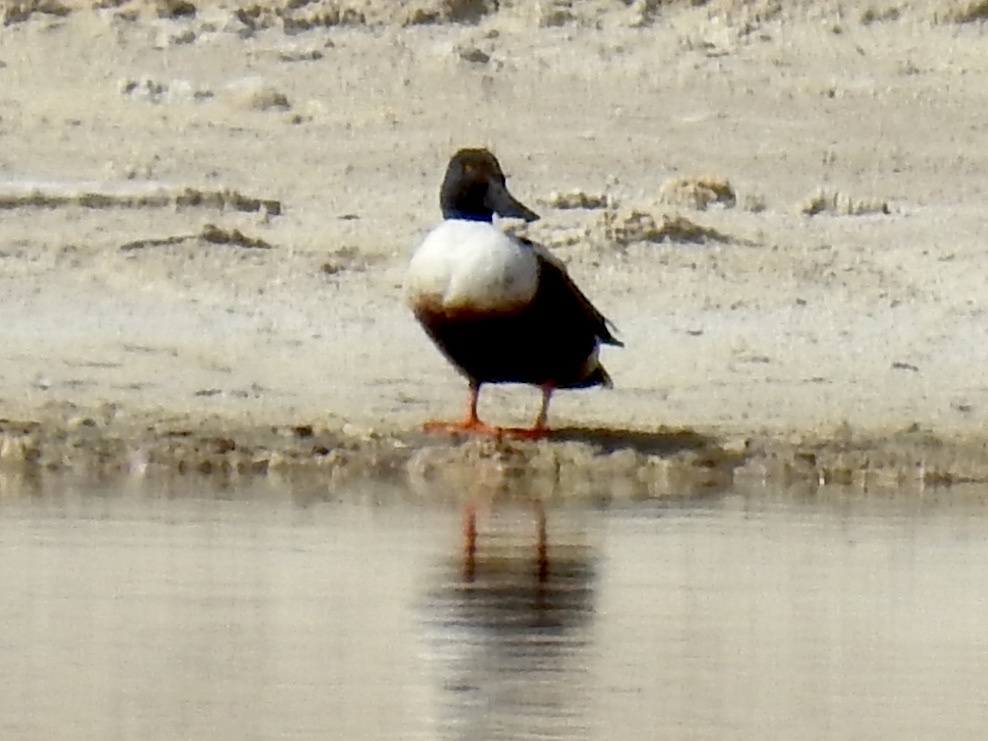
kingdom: Animalia
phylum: Chordata
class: Aves
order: Anseriformes
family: Anatidae
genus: Spatula
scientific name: Spatula clypeata
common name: Northern shoveler
